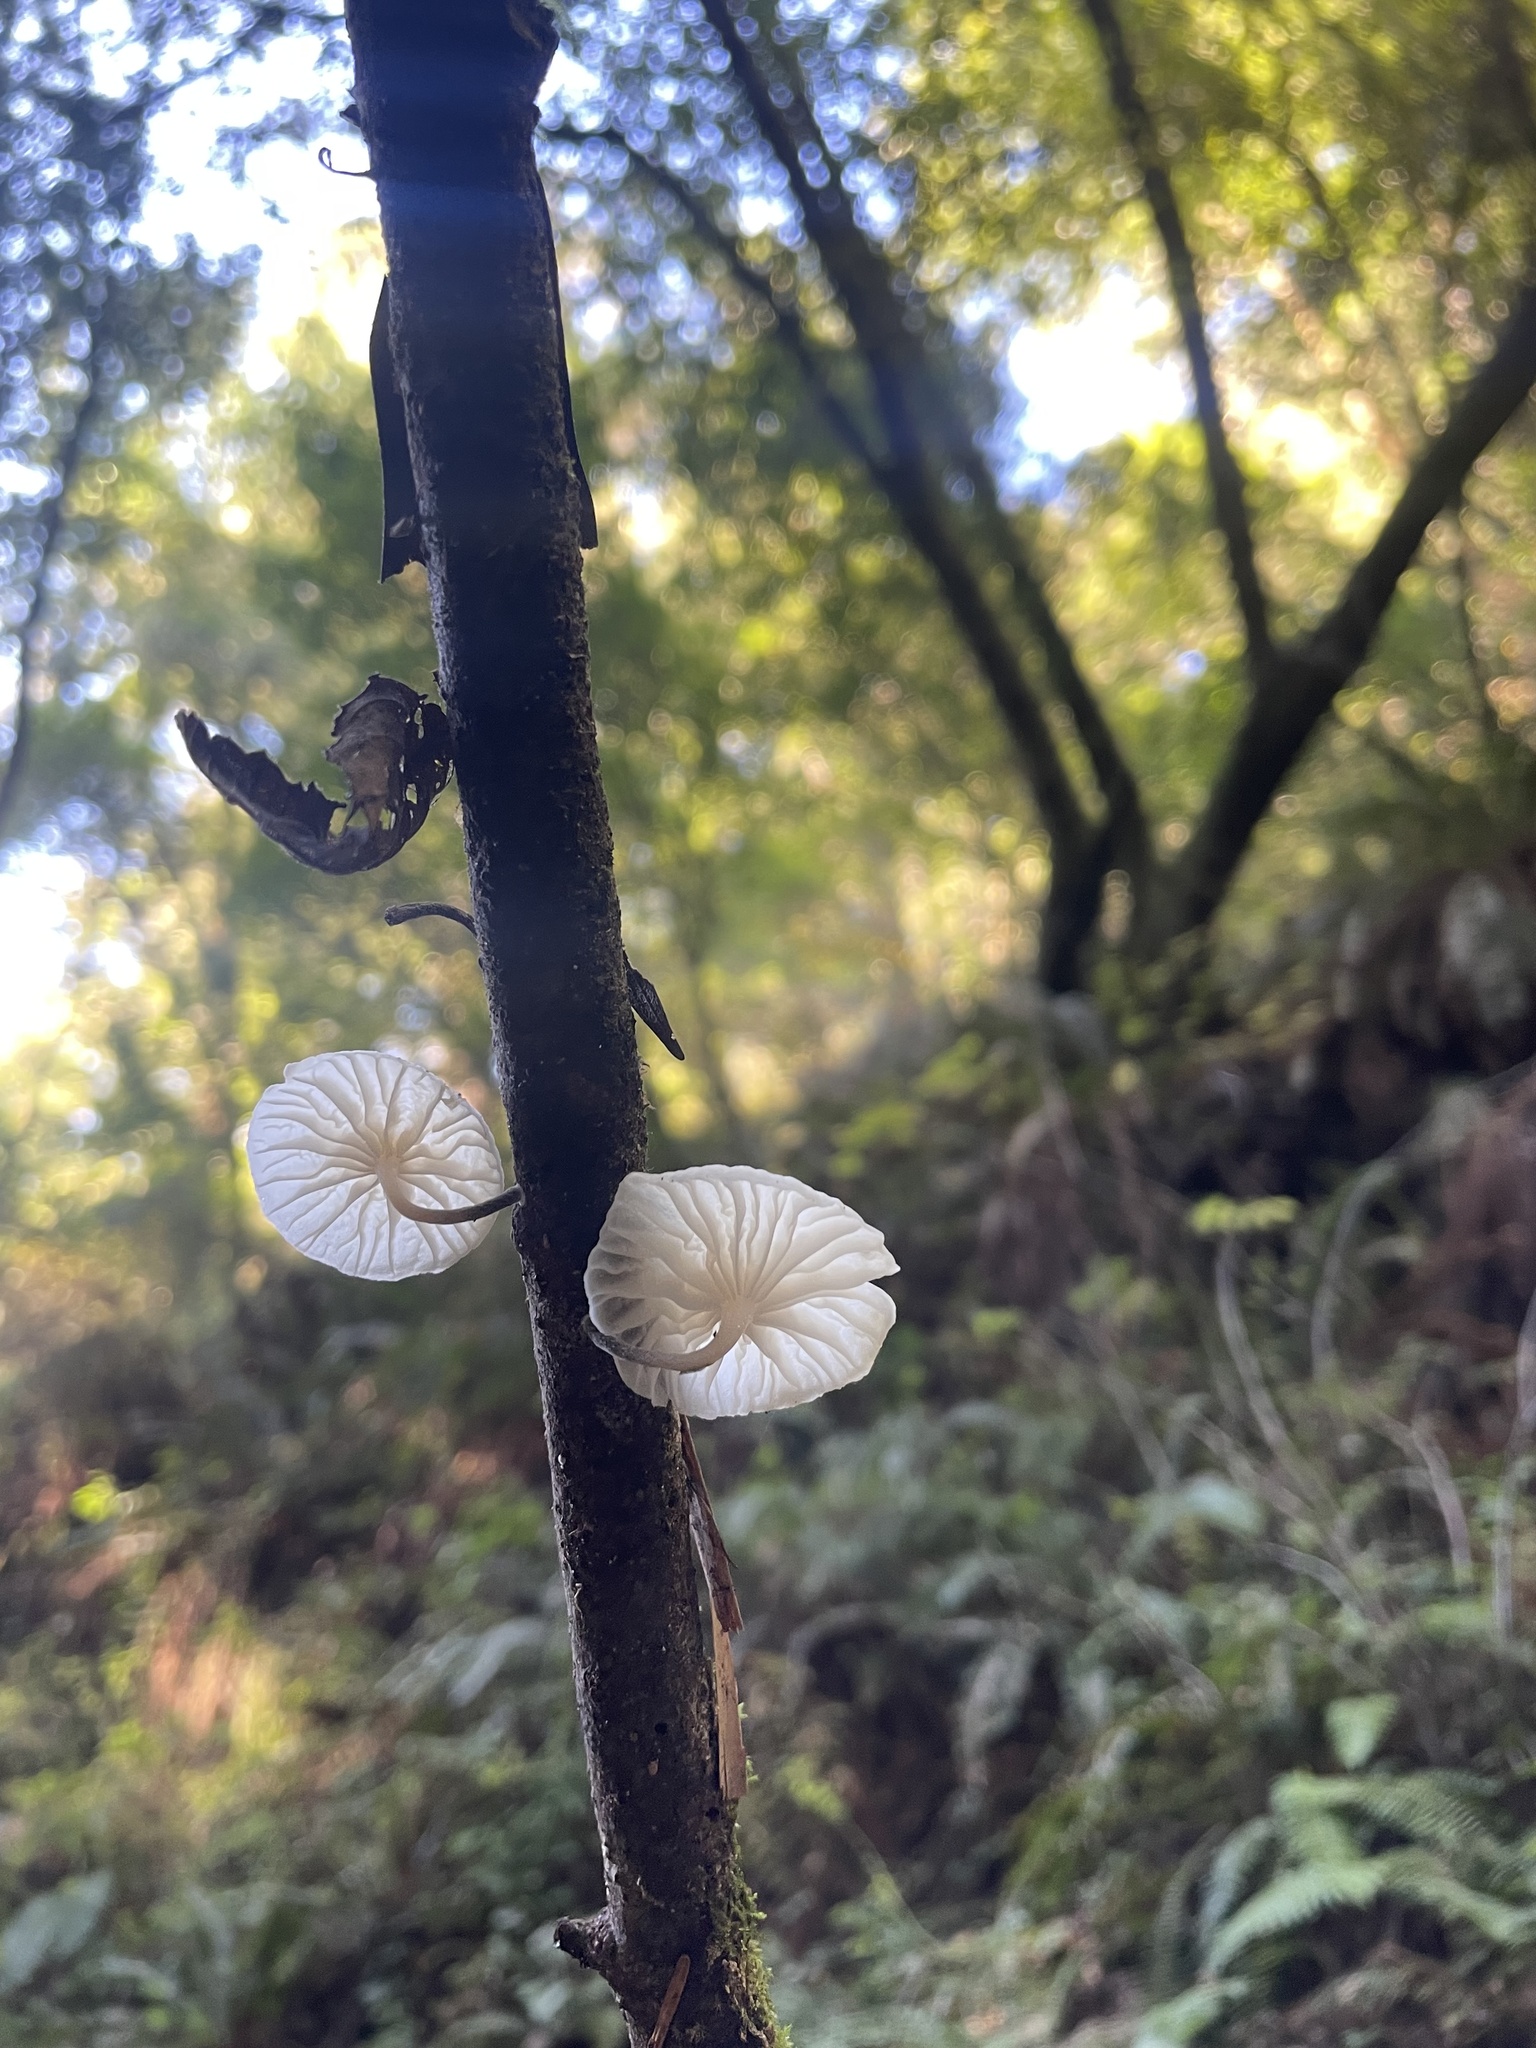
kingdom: Fungi
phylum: Basidiomycota
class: Agaricomycetes
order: Agaricales
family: Omphalotaceae
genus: Marasmiellus
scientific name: Marasmiellus candidus
